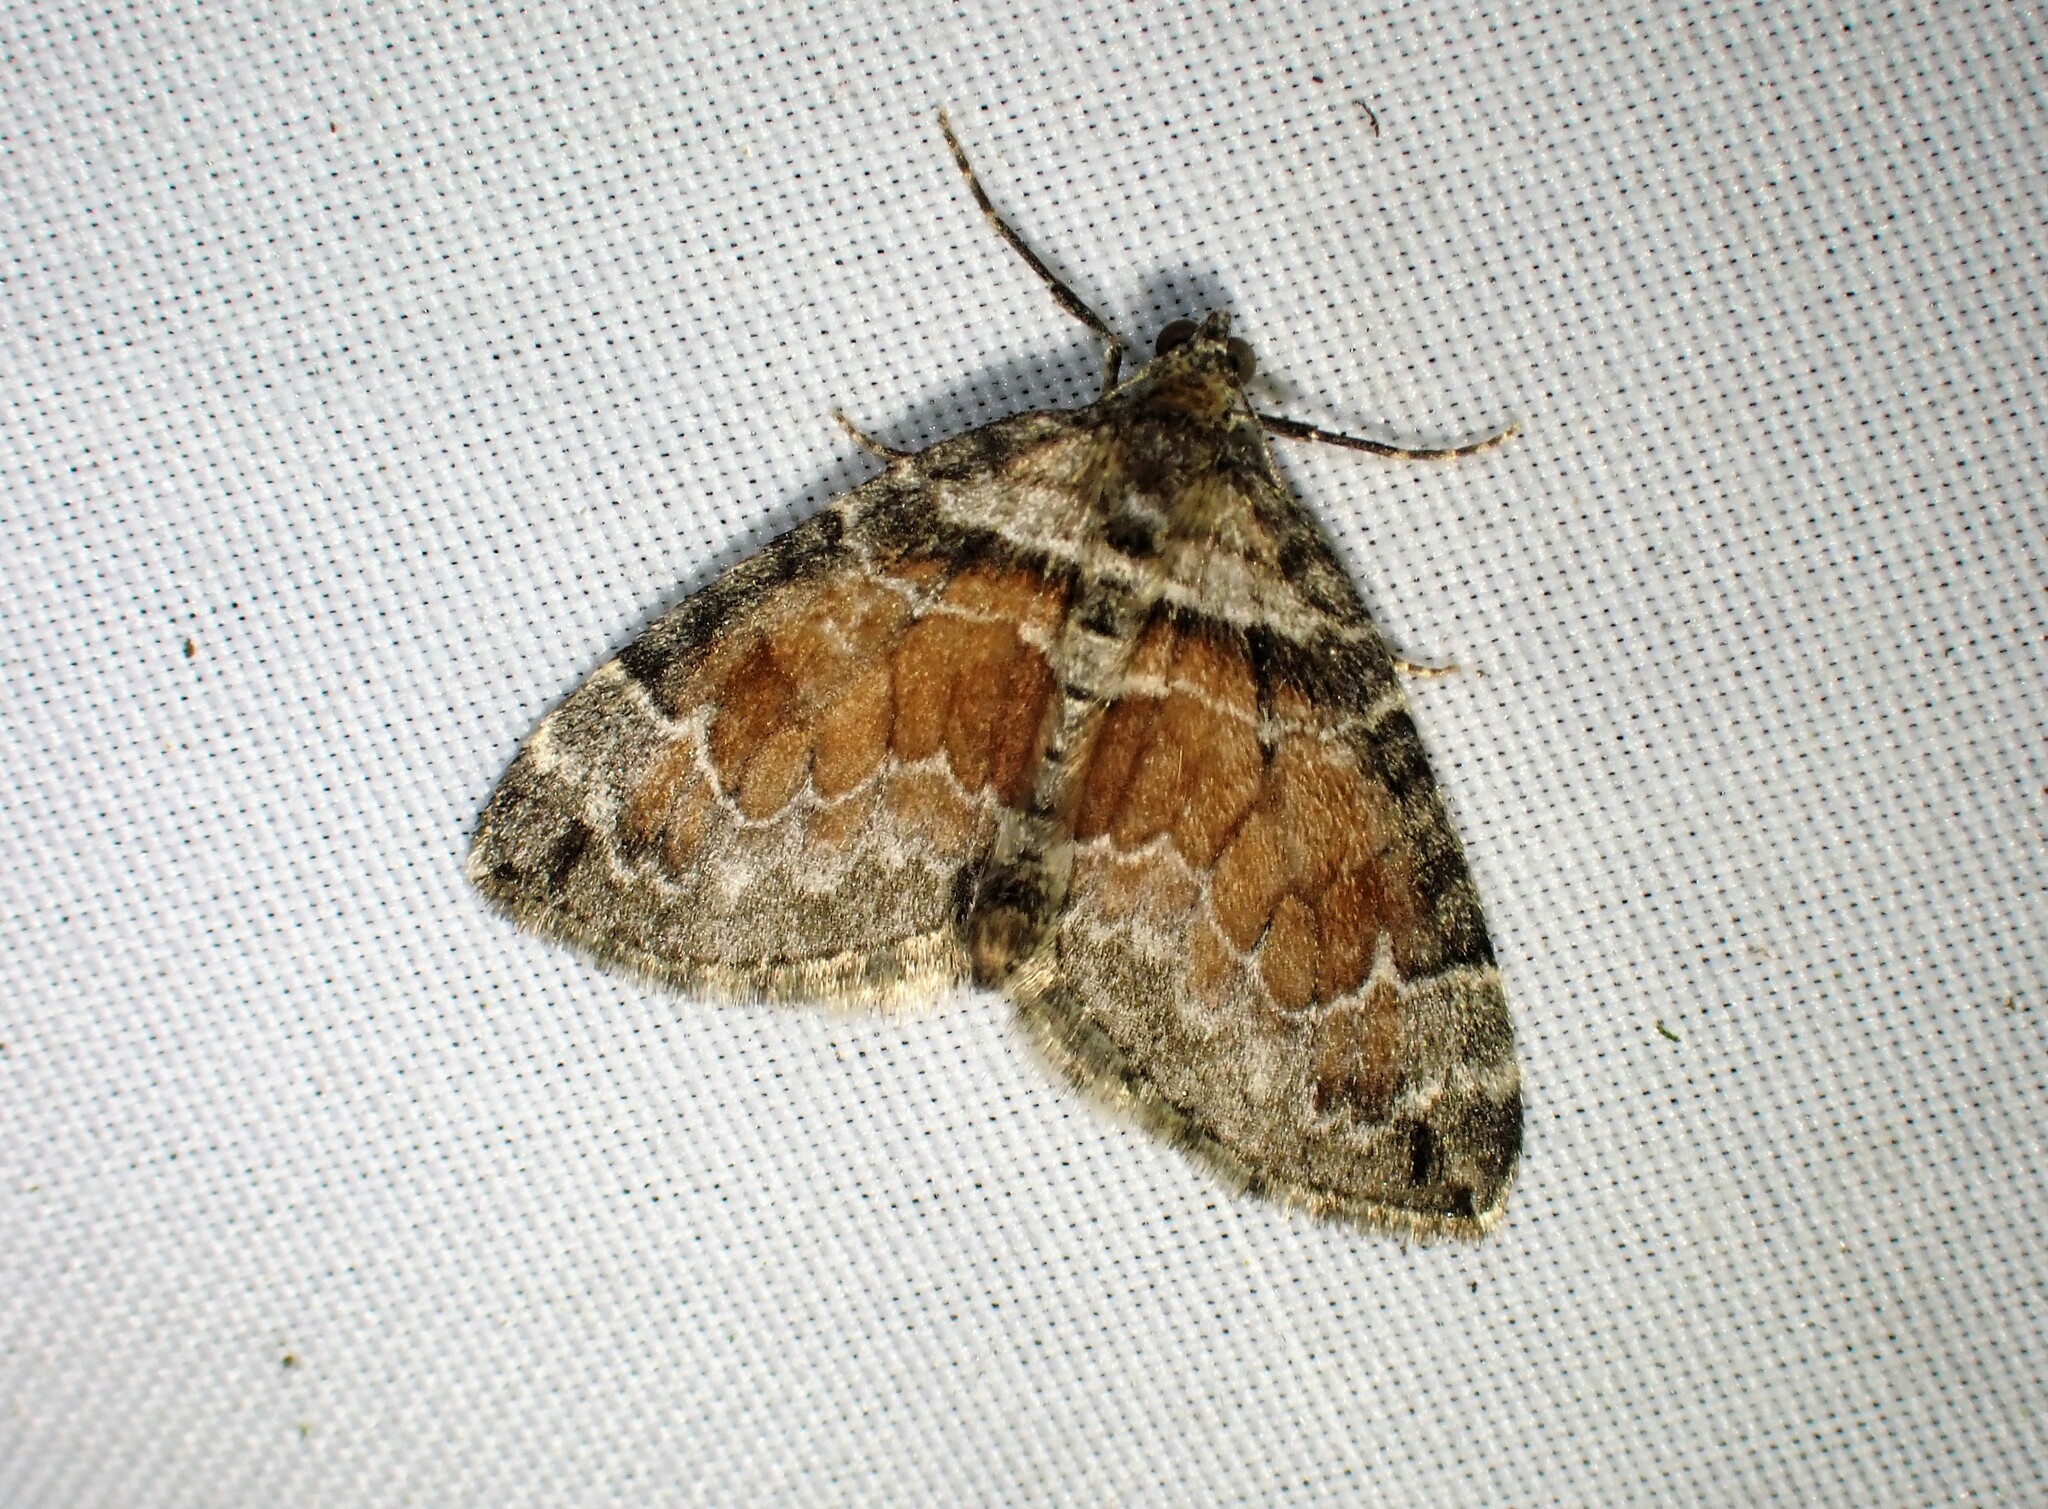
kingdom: Animalia
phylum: Arthropoda
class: Insecta
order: Lepidoptera
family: Geometridae
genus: Dysstroma
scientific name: Dysstroma hersiliata
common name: Orange-barred carpet
